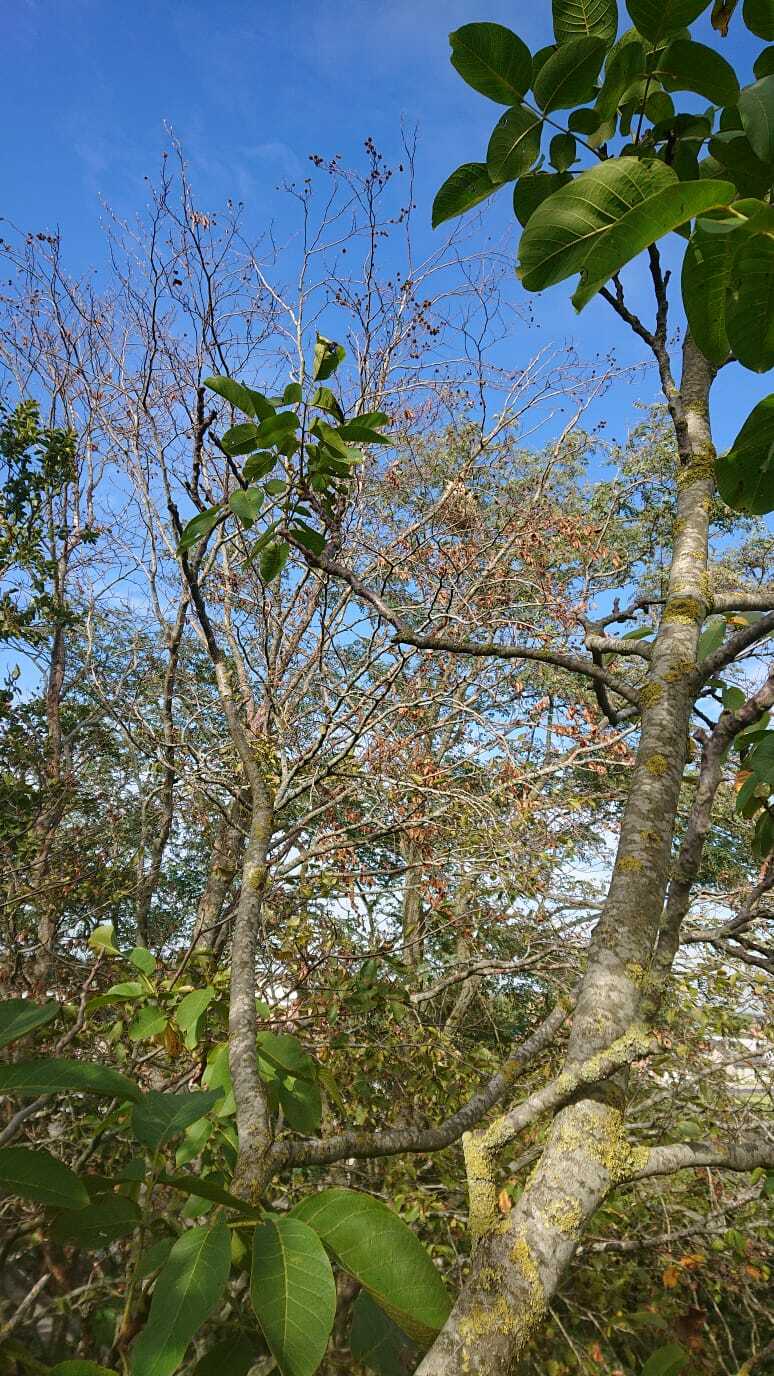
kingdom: Animalia
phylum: Arthropoda
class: Insecta
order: Hymenoptera
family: Vespidae
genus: Vespa
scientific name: Vespa velutina
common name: Asian hornet
